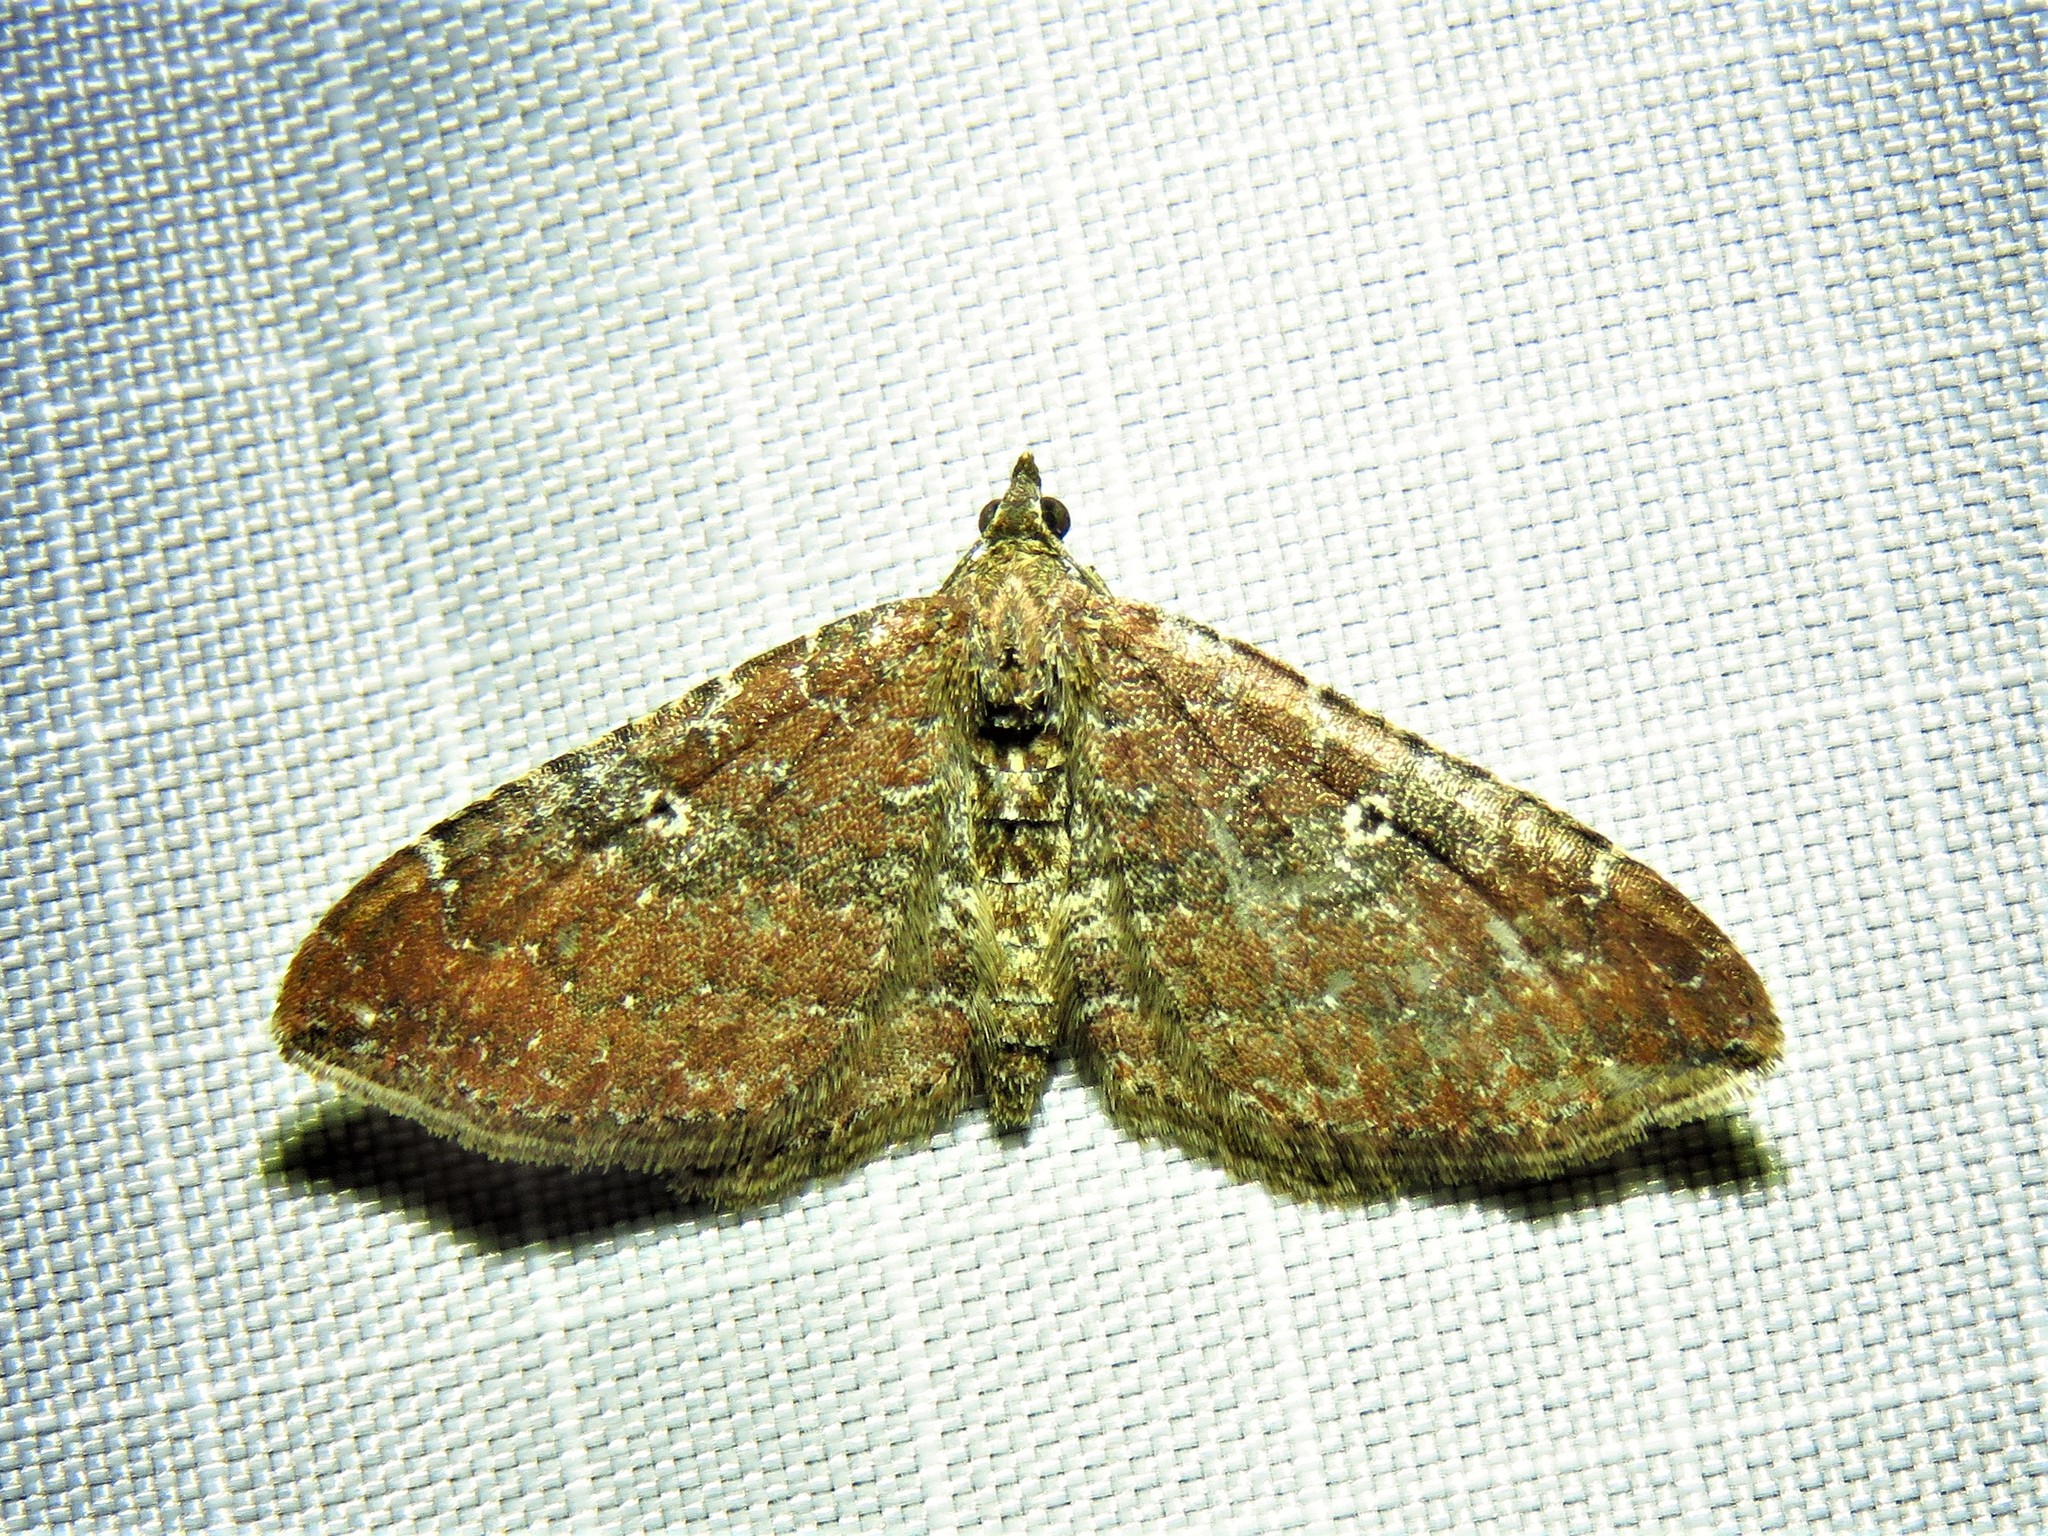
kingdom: Animalia
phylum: Arthropoda
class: Insecta
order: Lepidoptera
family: Geometridae
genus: Orthonama
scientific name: Orthonama obstipata
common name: The gem
